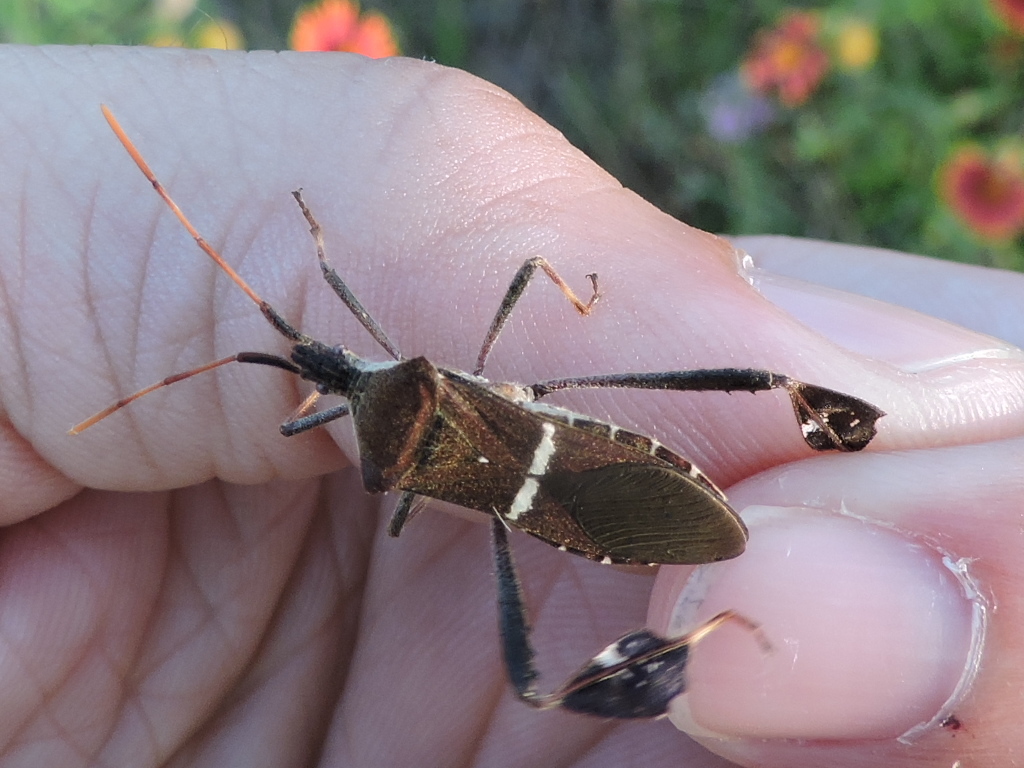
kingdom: Animalia
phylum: Arthropoda
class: Insecta
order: Hemiptera
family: Coreidae
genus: Leptoglossus
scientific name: Leptoglossus phyllopus
